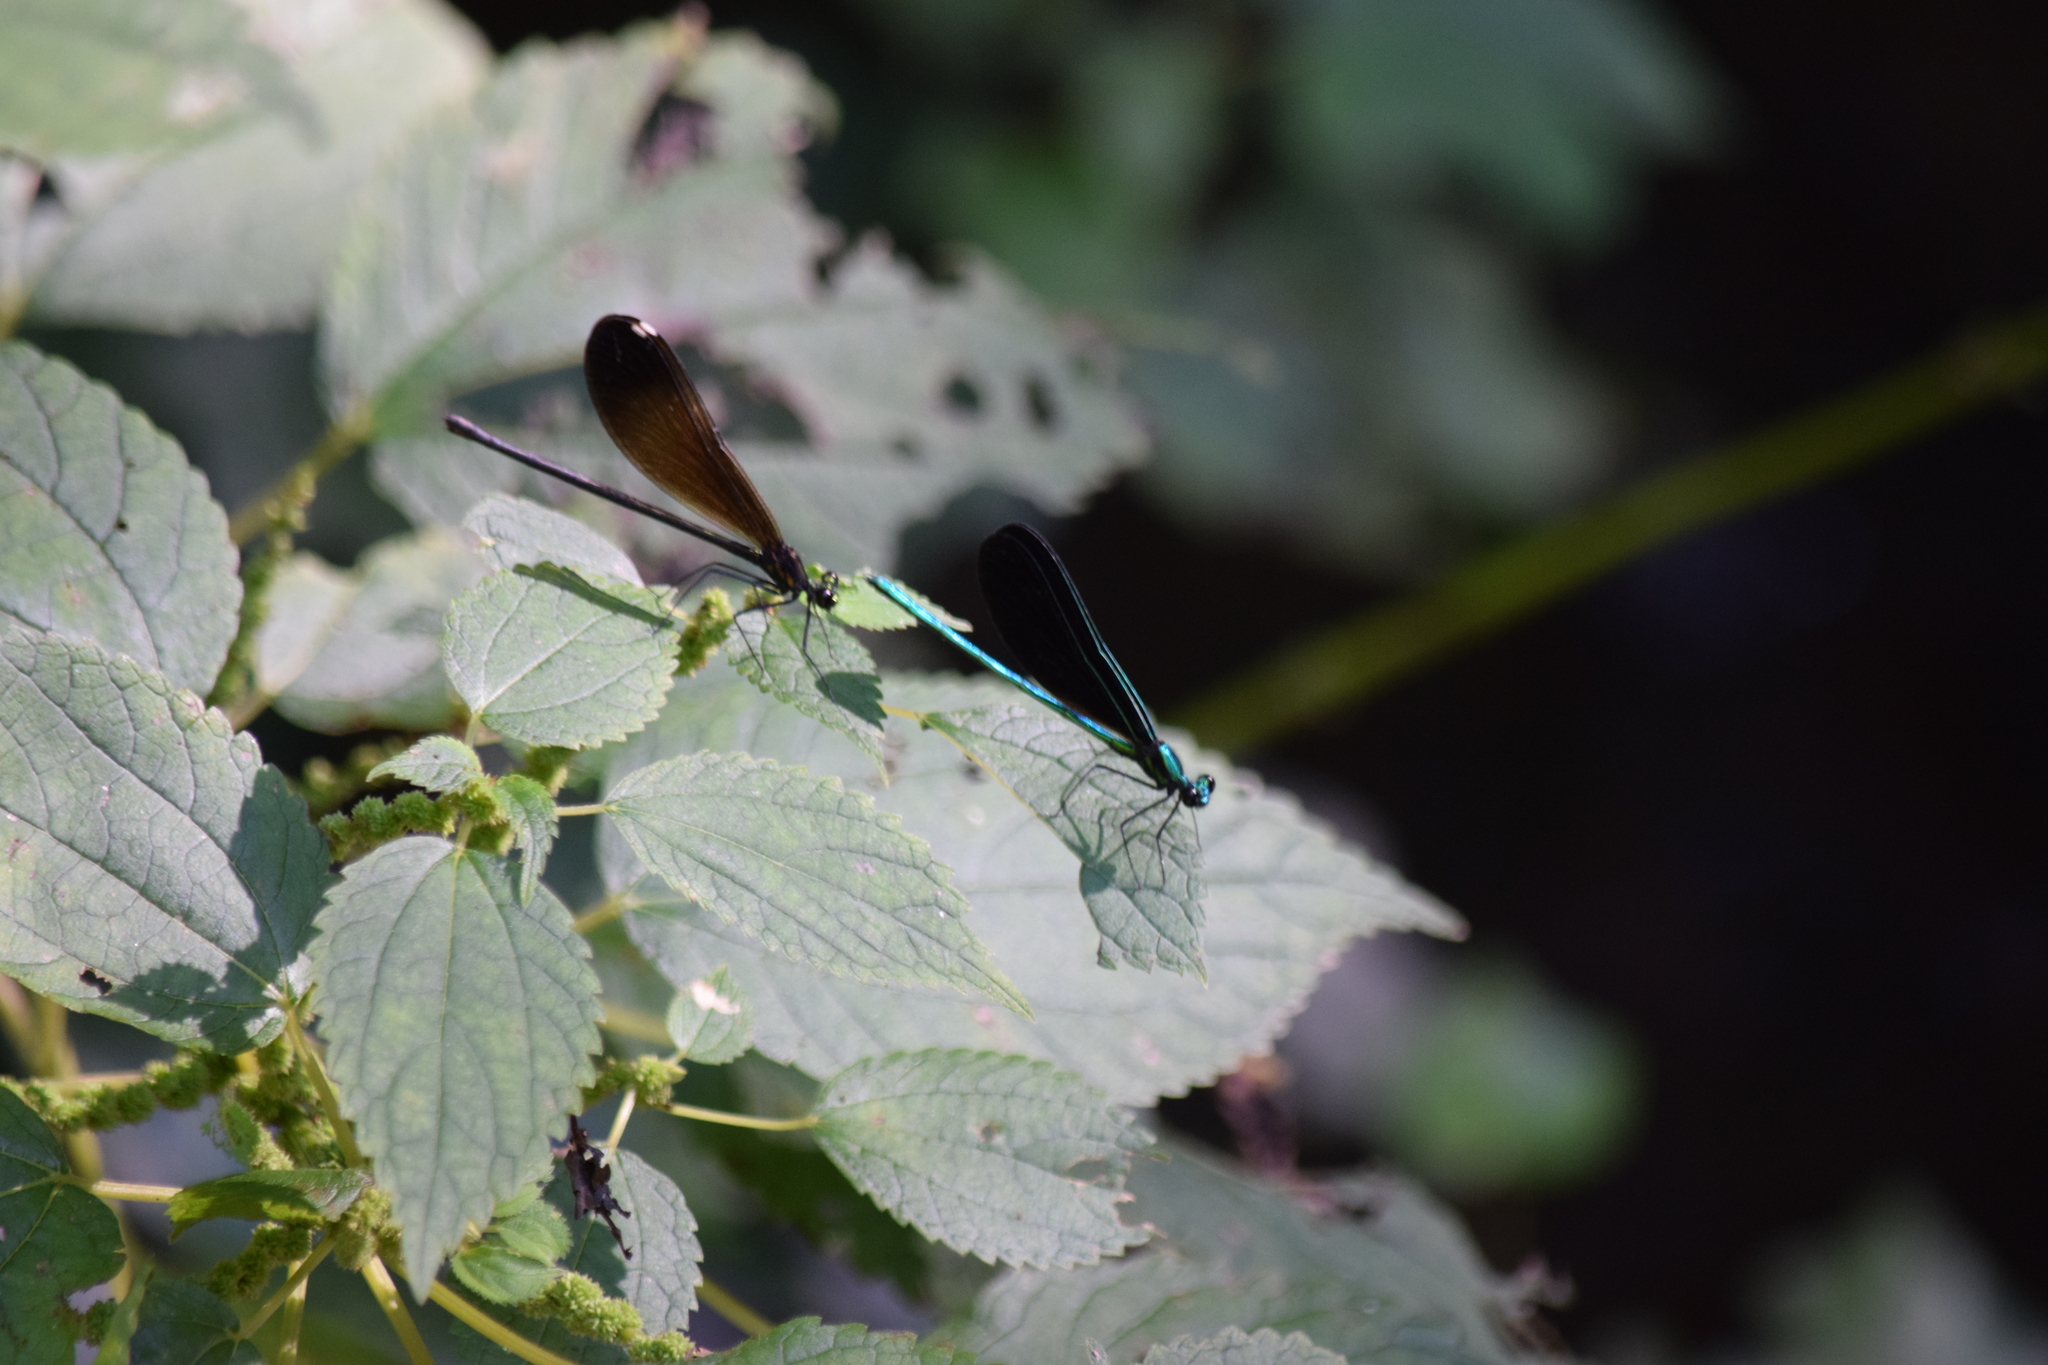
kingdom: Animalia
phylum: Arthropoda
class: Insecta
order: Odonata
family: Calopterygidae
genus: Calopteryx
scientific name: Calopteryx maculata
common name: Ebony jewelwing
